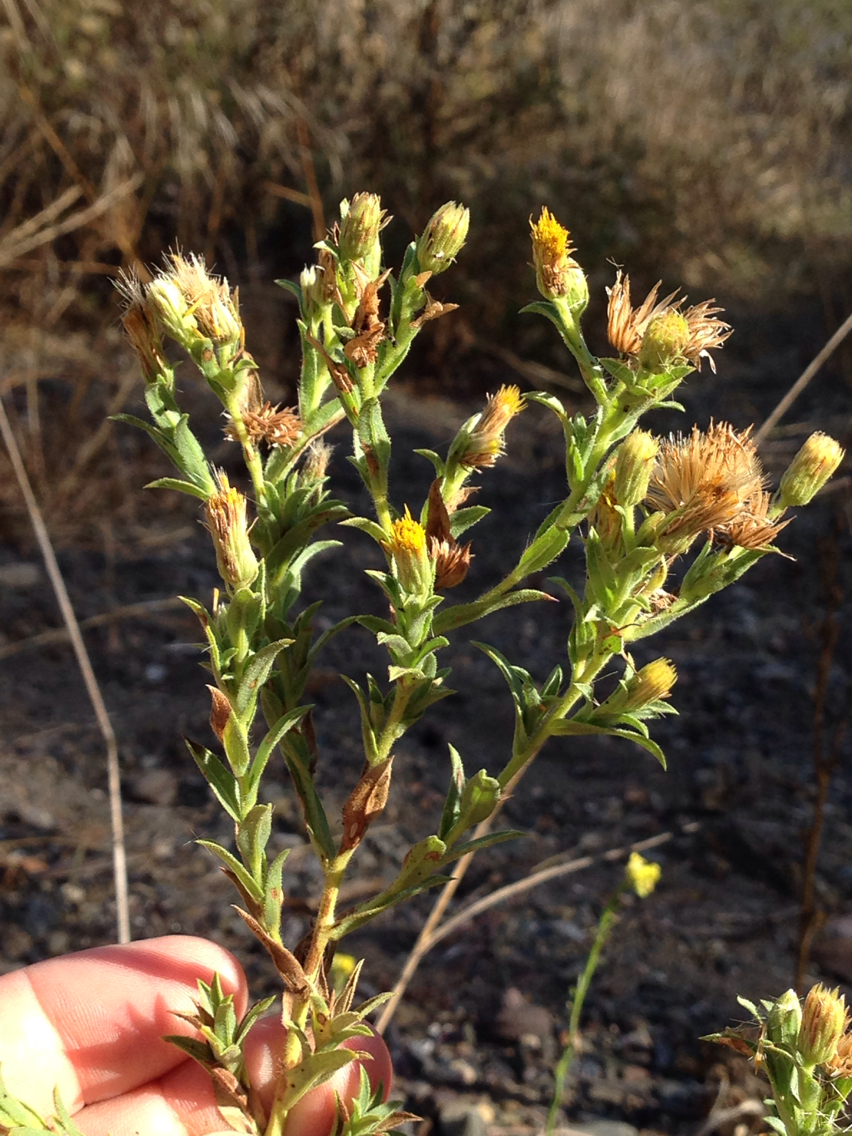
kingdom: Plantae
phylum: Tracheophyta
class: Magnoliopsida
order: Asterales
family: Asteraceae
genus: Heterotheca
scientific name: Heterotheca oregona
